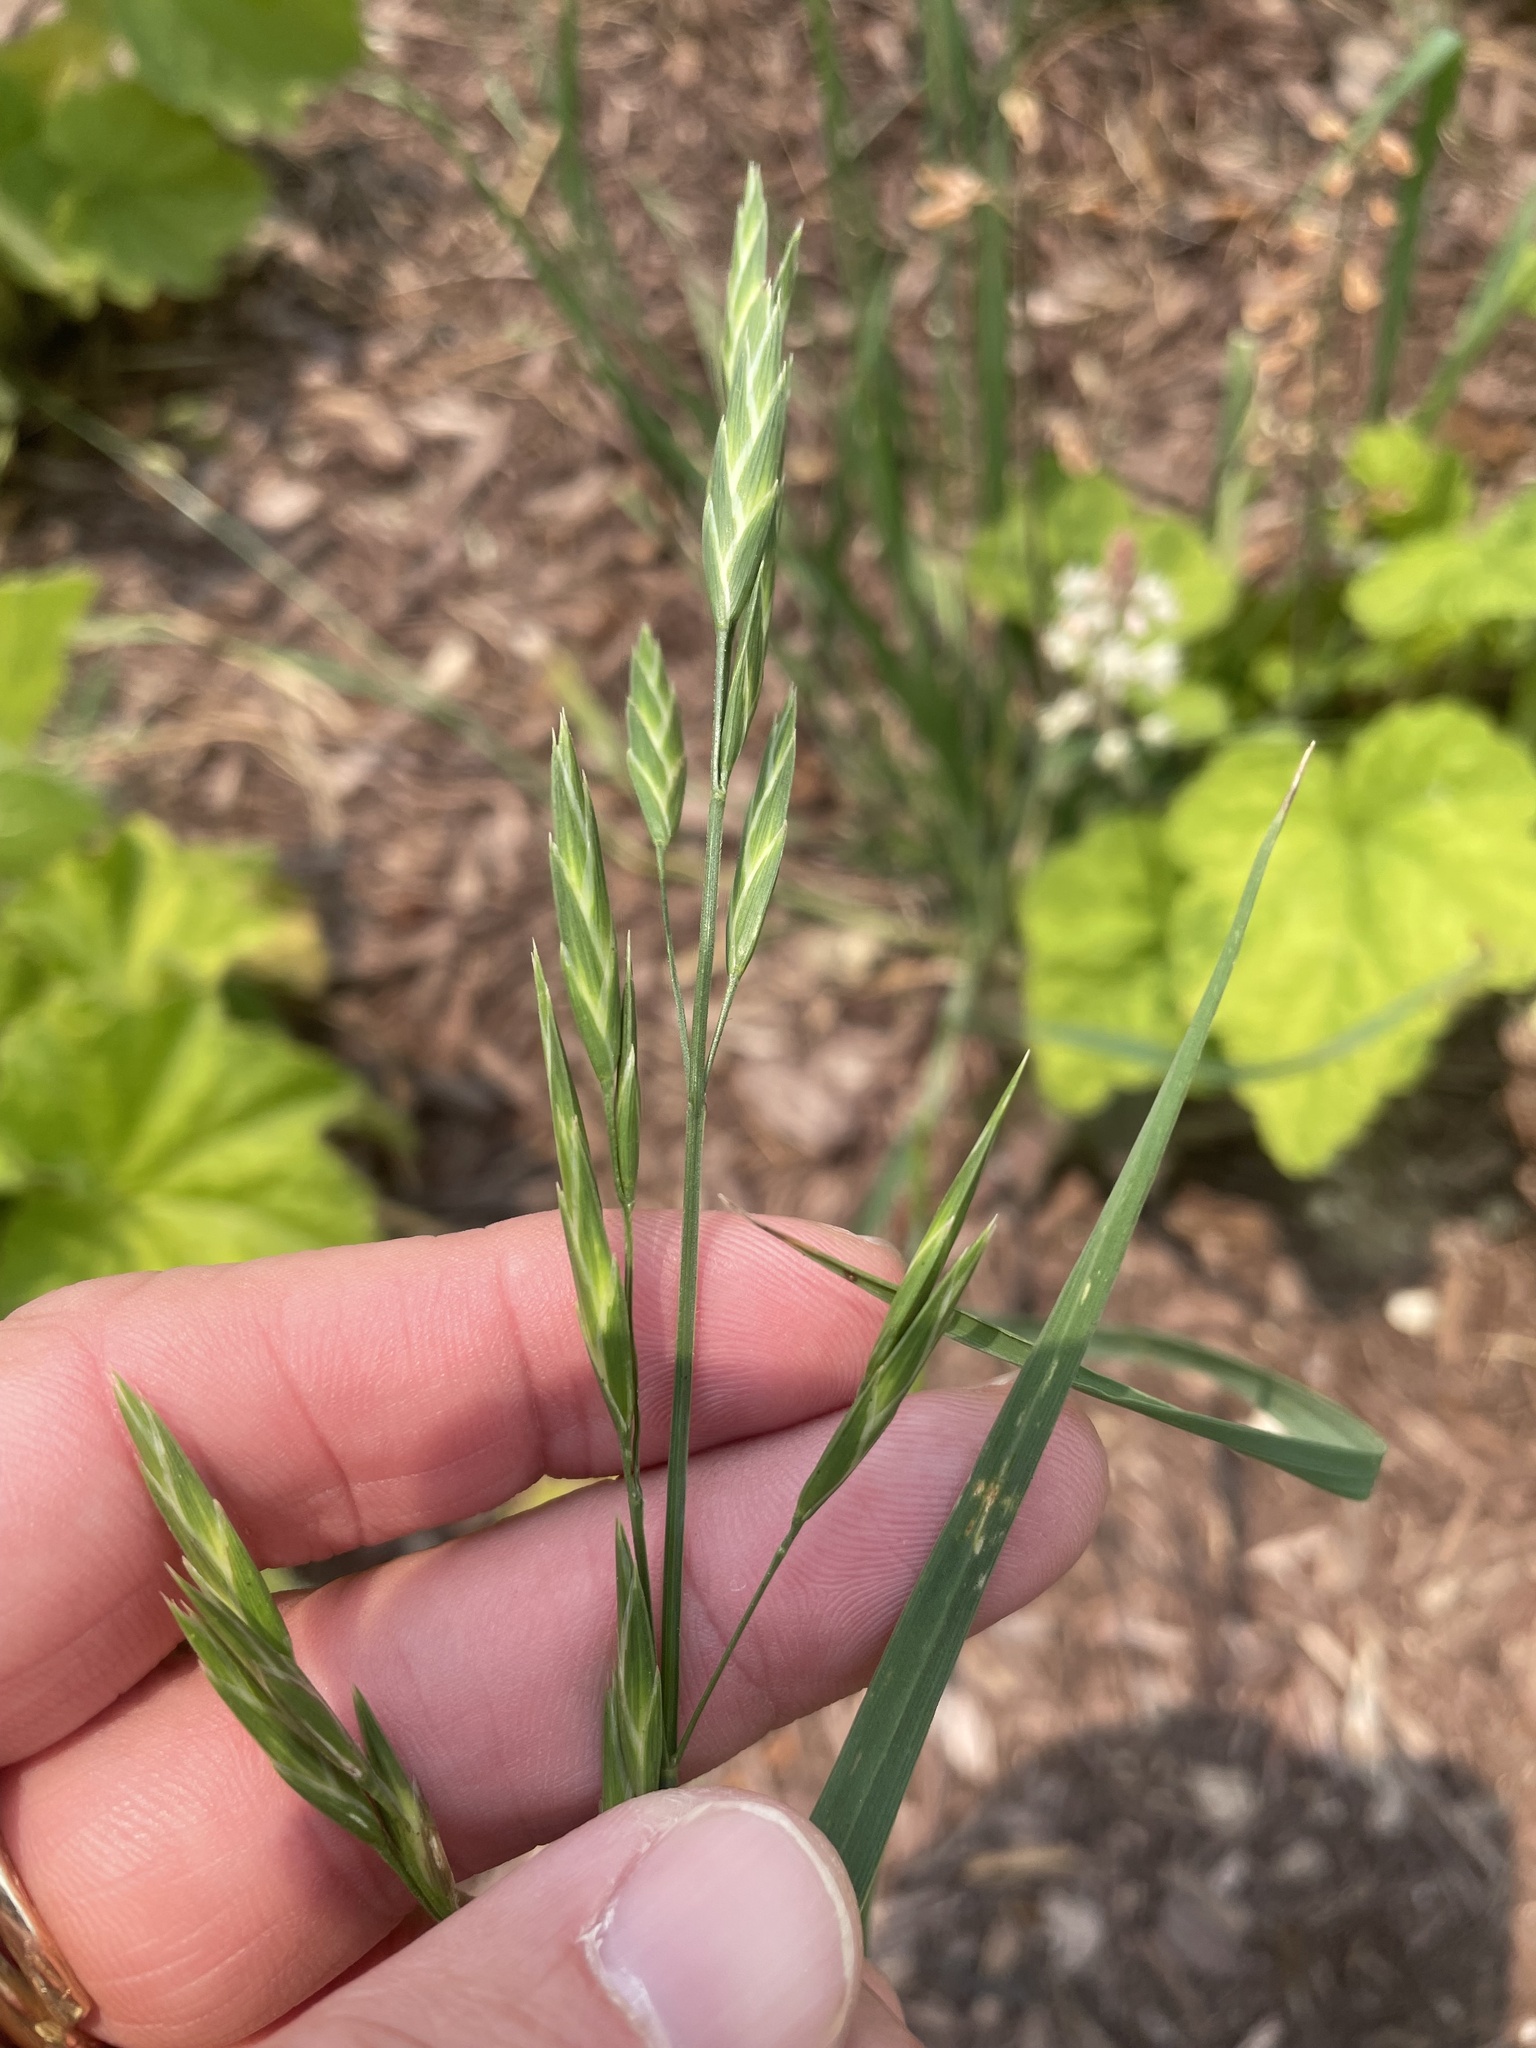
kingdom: Plantae
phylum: Tracheophyta
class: Liliopsida
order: Poales
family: Poaceae
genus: Bromus
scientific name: Bromus catharticus
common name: Rescuegrass
